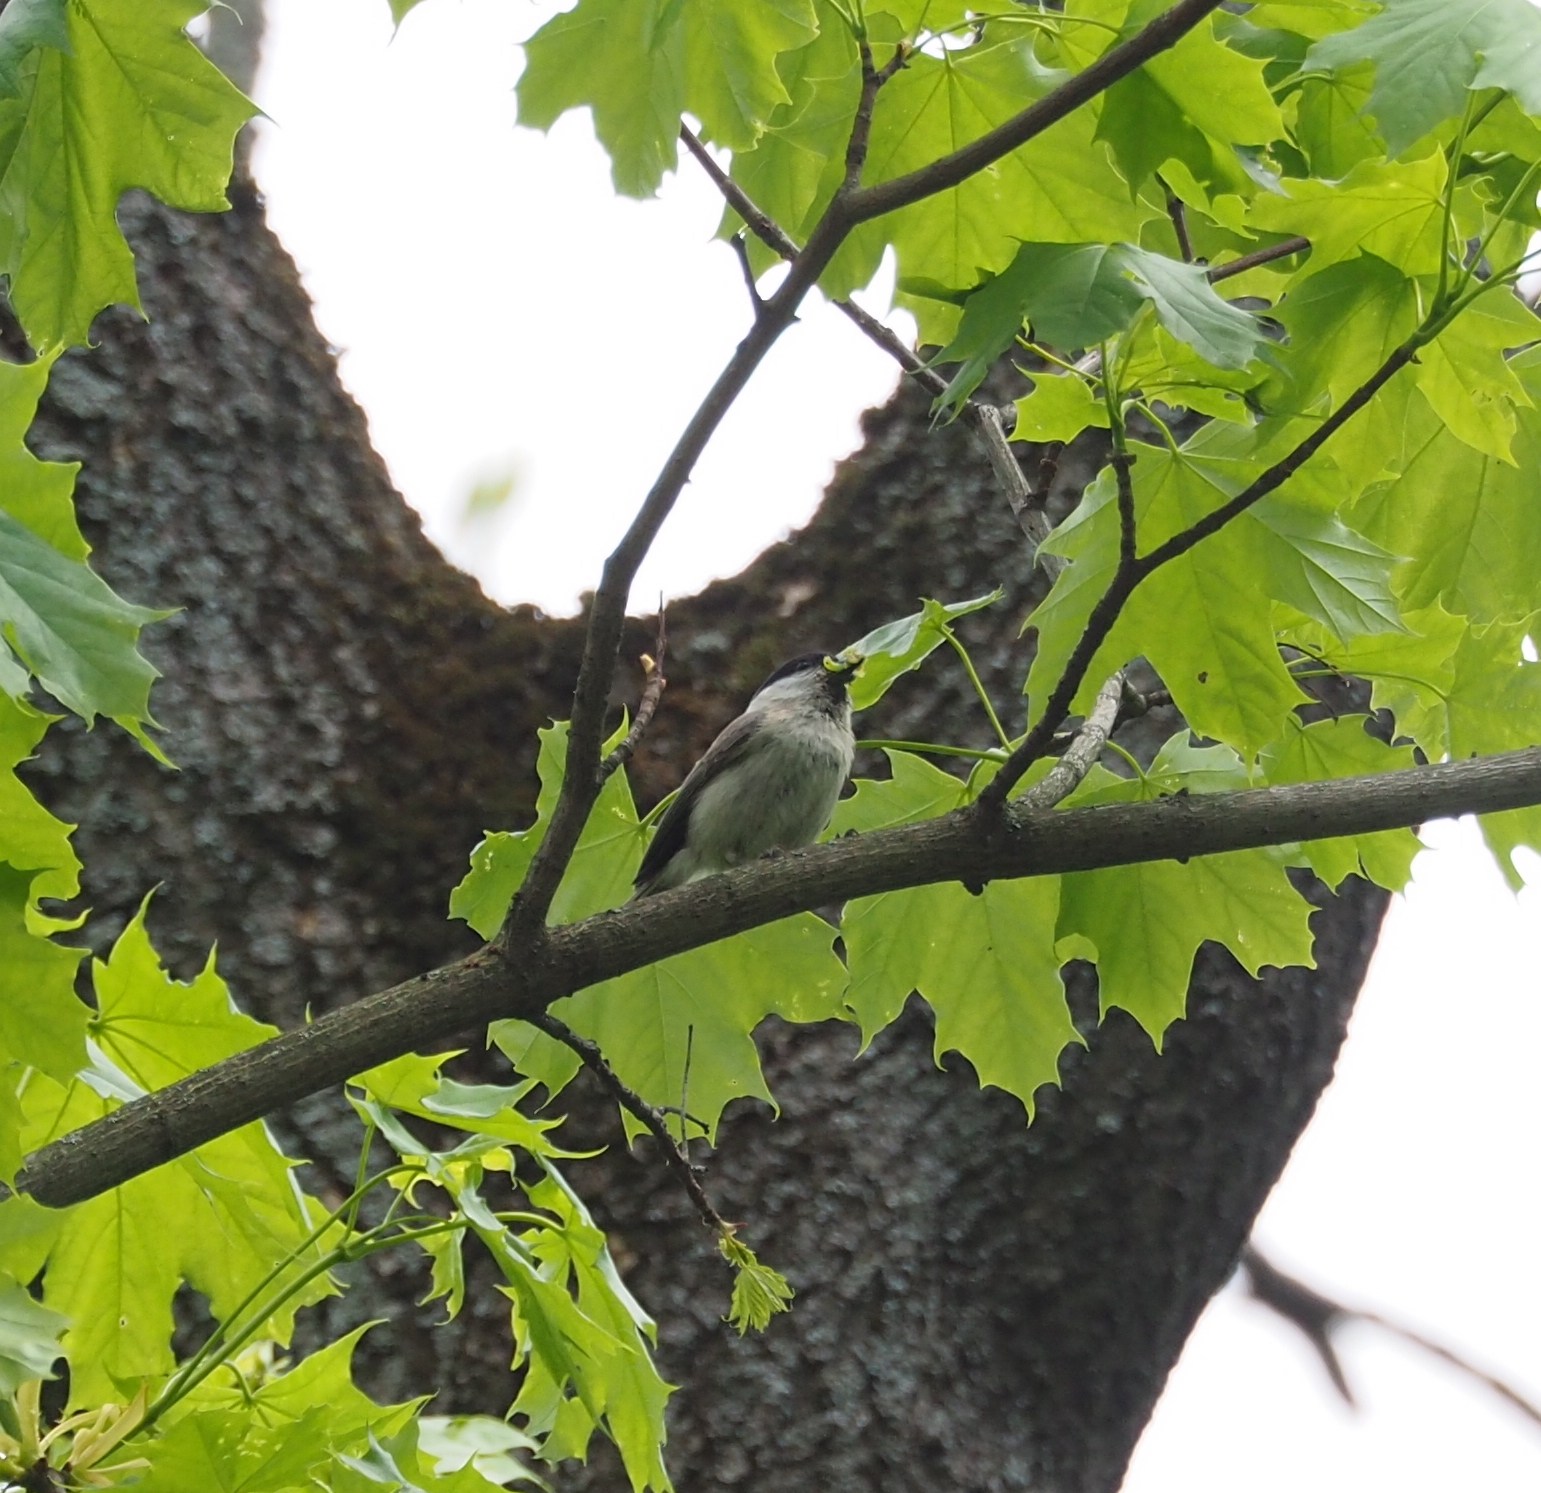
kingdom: Animalia
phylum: Chordata
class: Aves
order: Passeriformes
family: Paridae
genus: Poecile
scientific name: Poecile palustris
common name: Marsh tit
